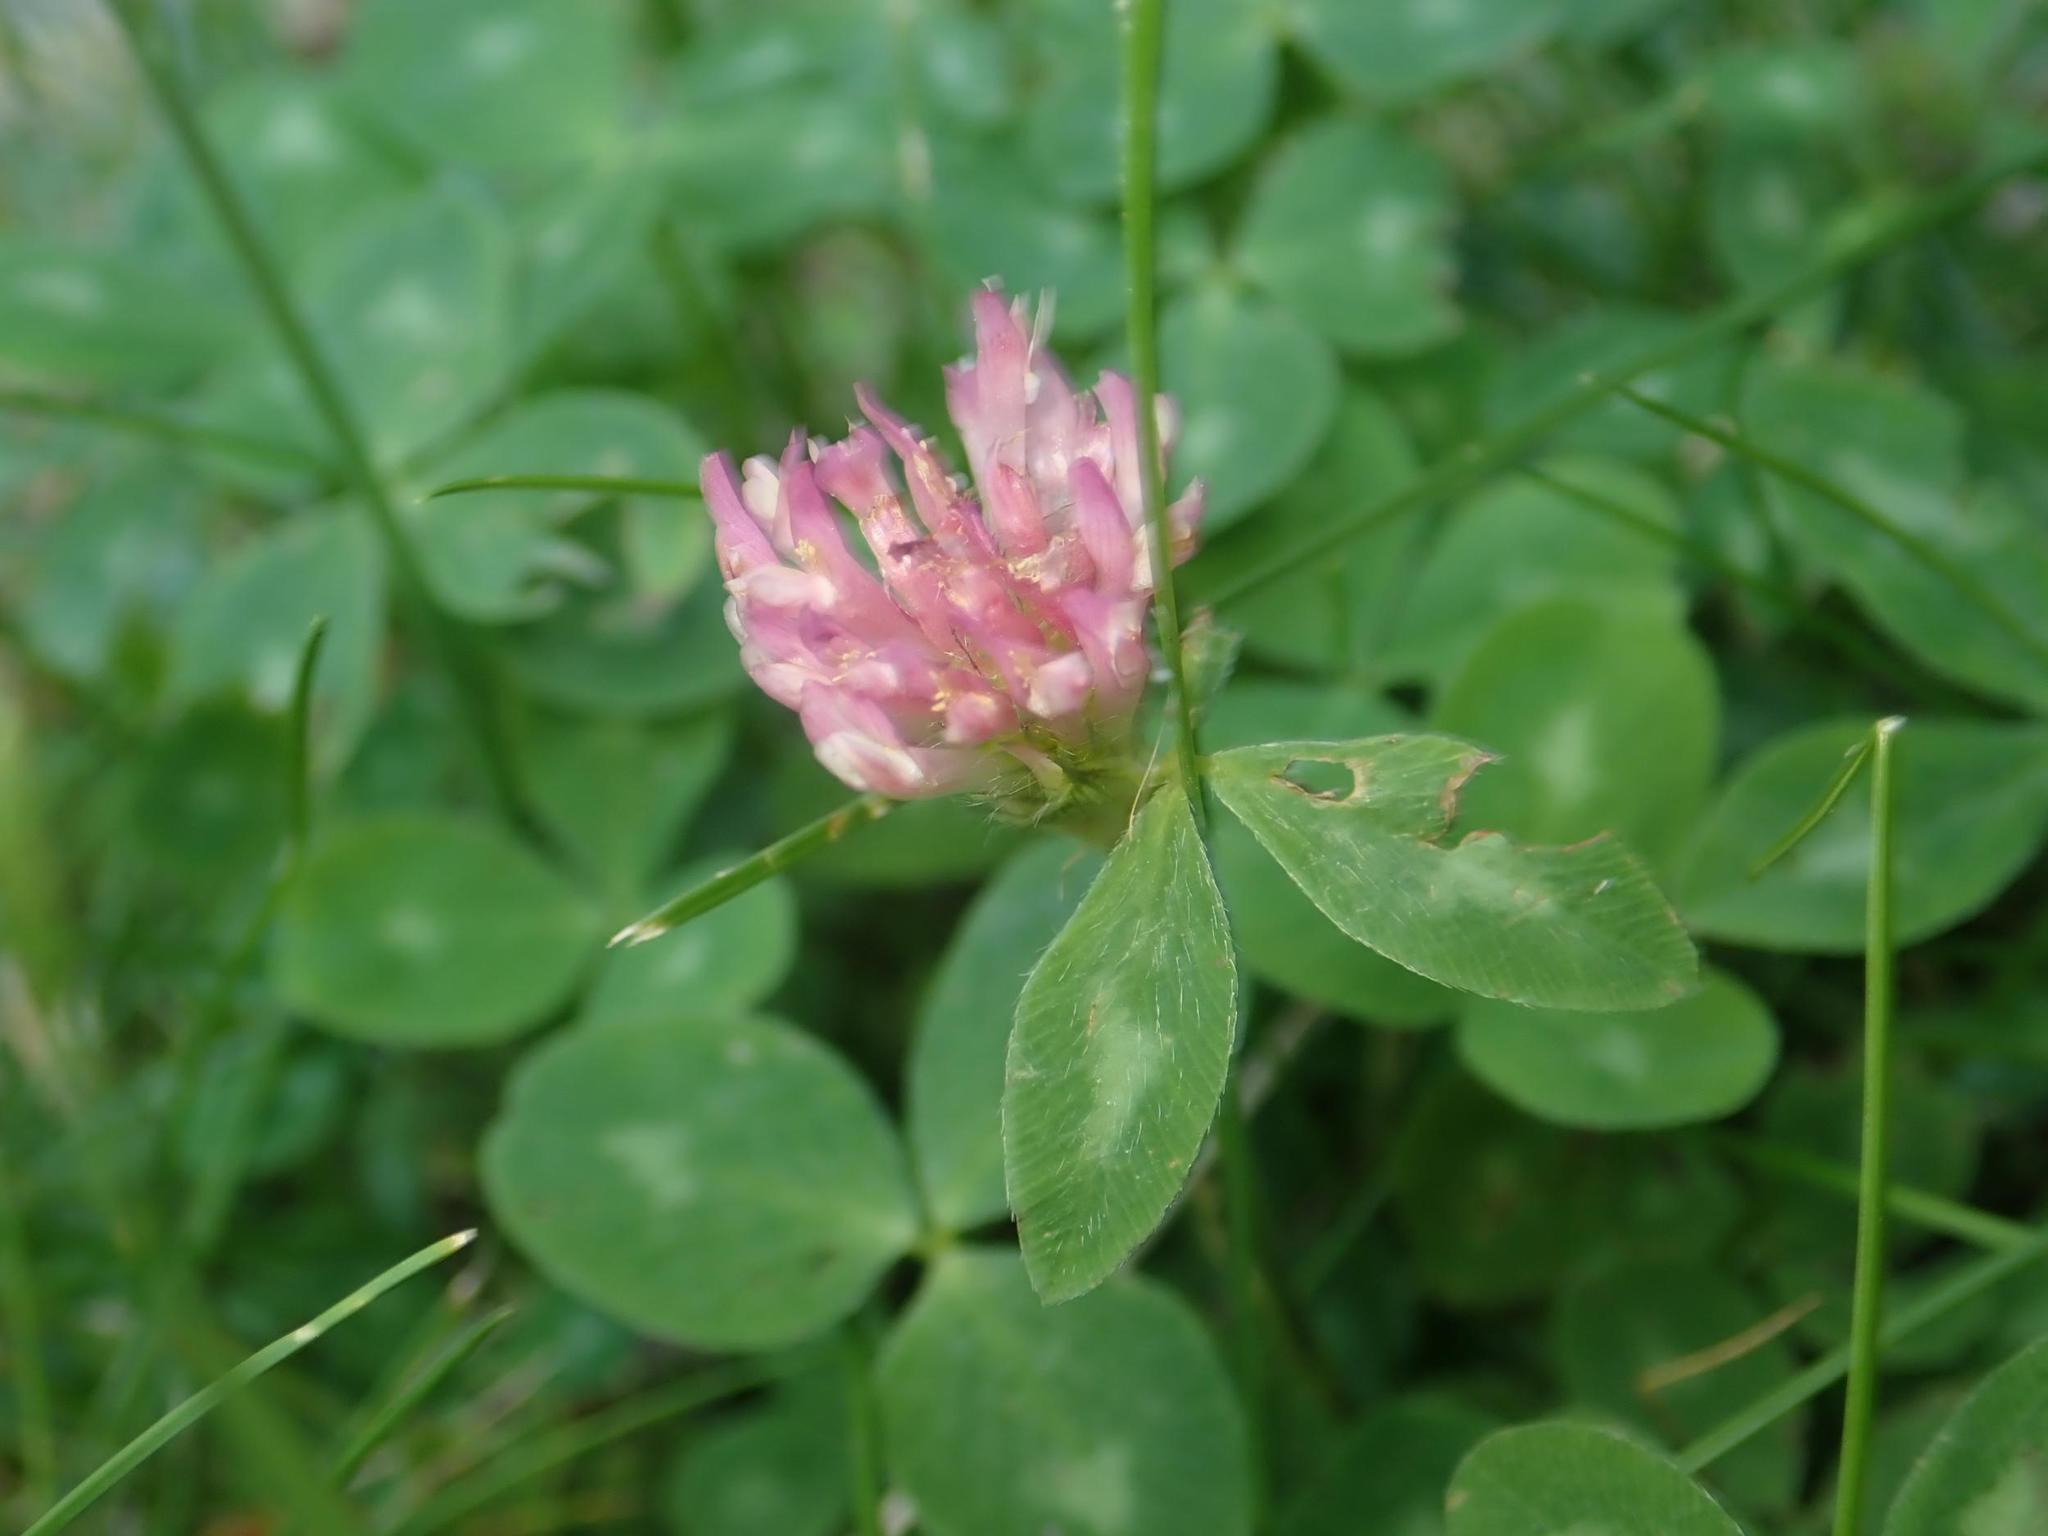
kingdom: Plantae
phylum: Tracheophyta
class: Magnoliopsida
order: Fabales
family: Fabaceae
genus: Trifolium
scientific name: Trifolium pratense
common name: Red clover
